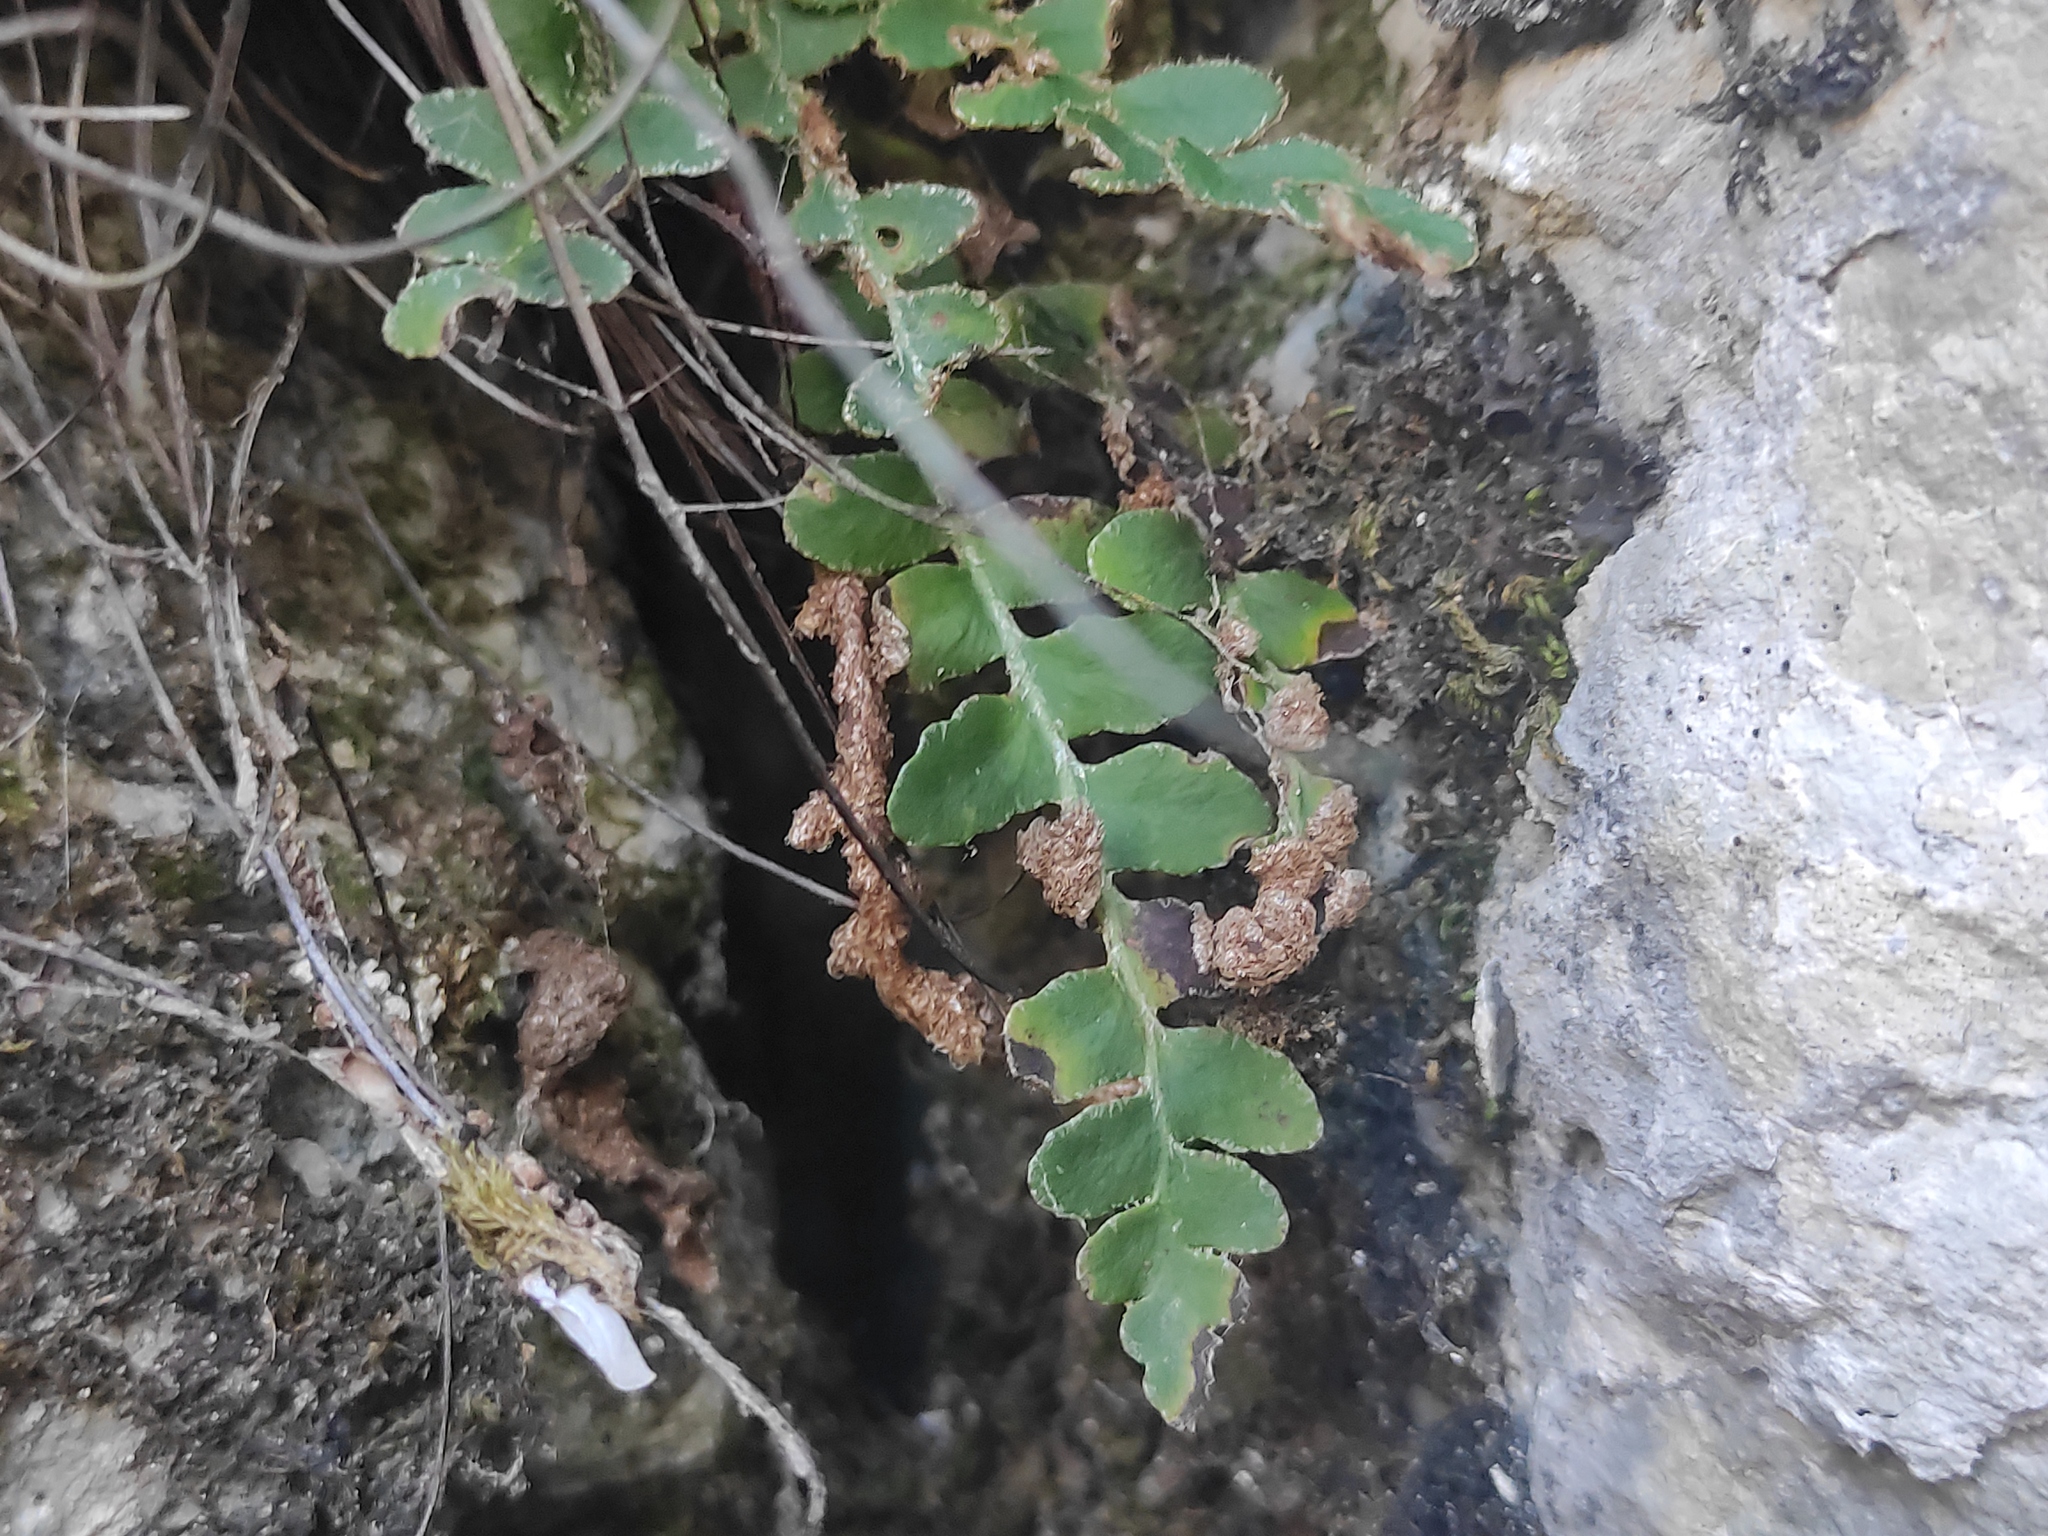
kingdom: Plantae
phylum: Tracheophyta
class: Polypodiopsida
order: Polypodiales
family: Aspleniaceae
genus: Asplenium
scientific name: Asplenium ceterach
